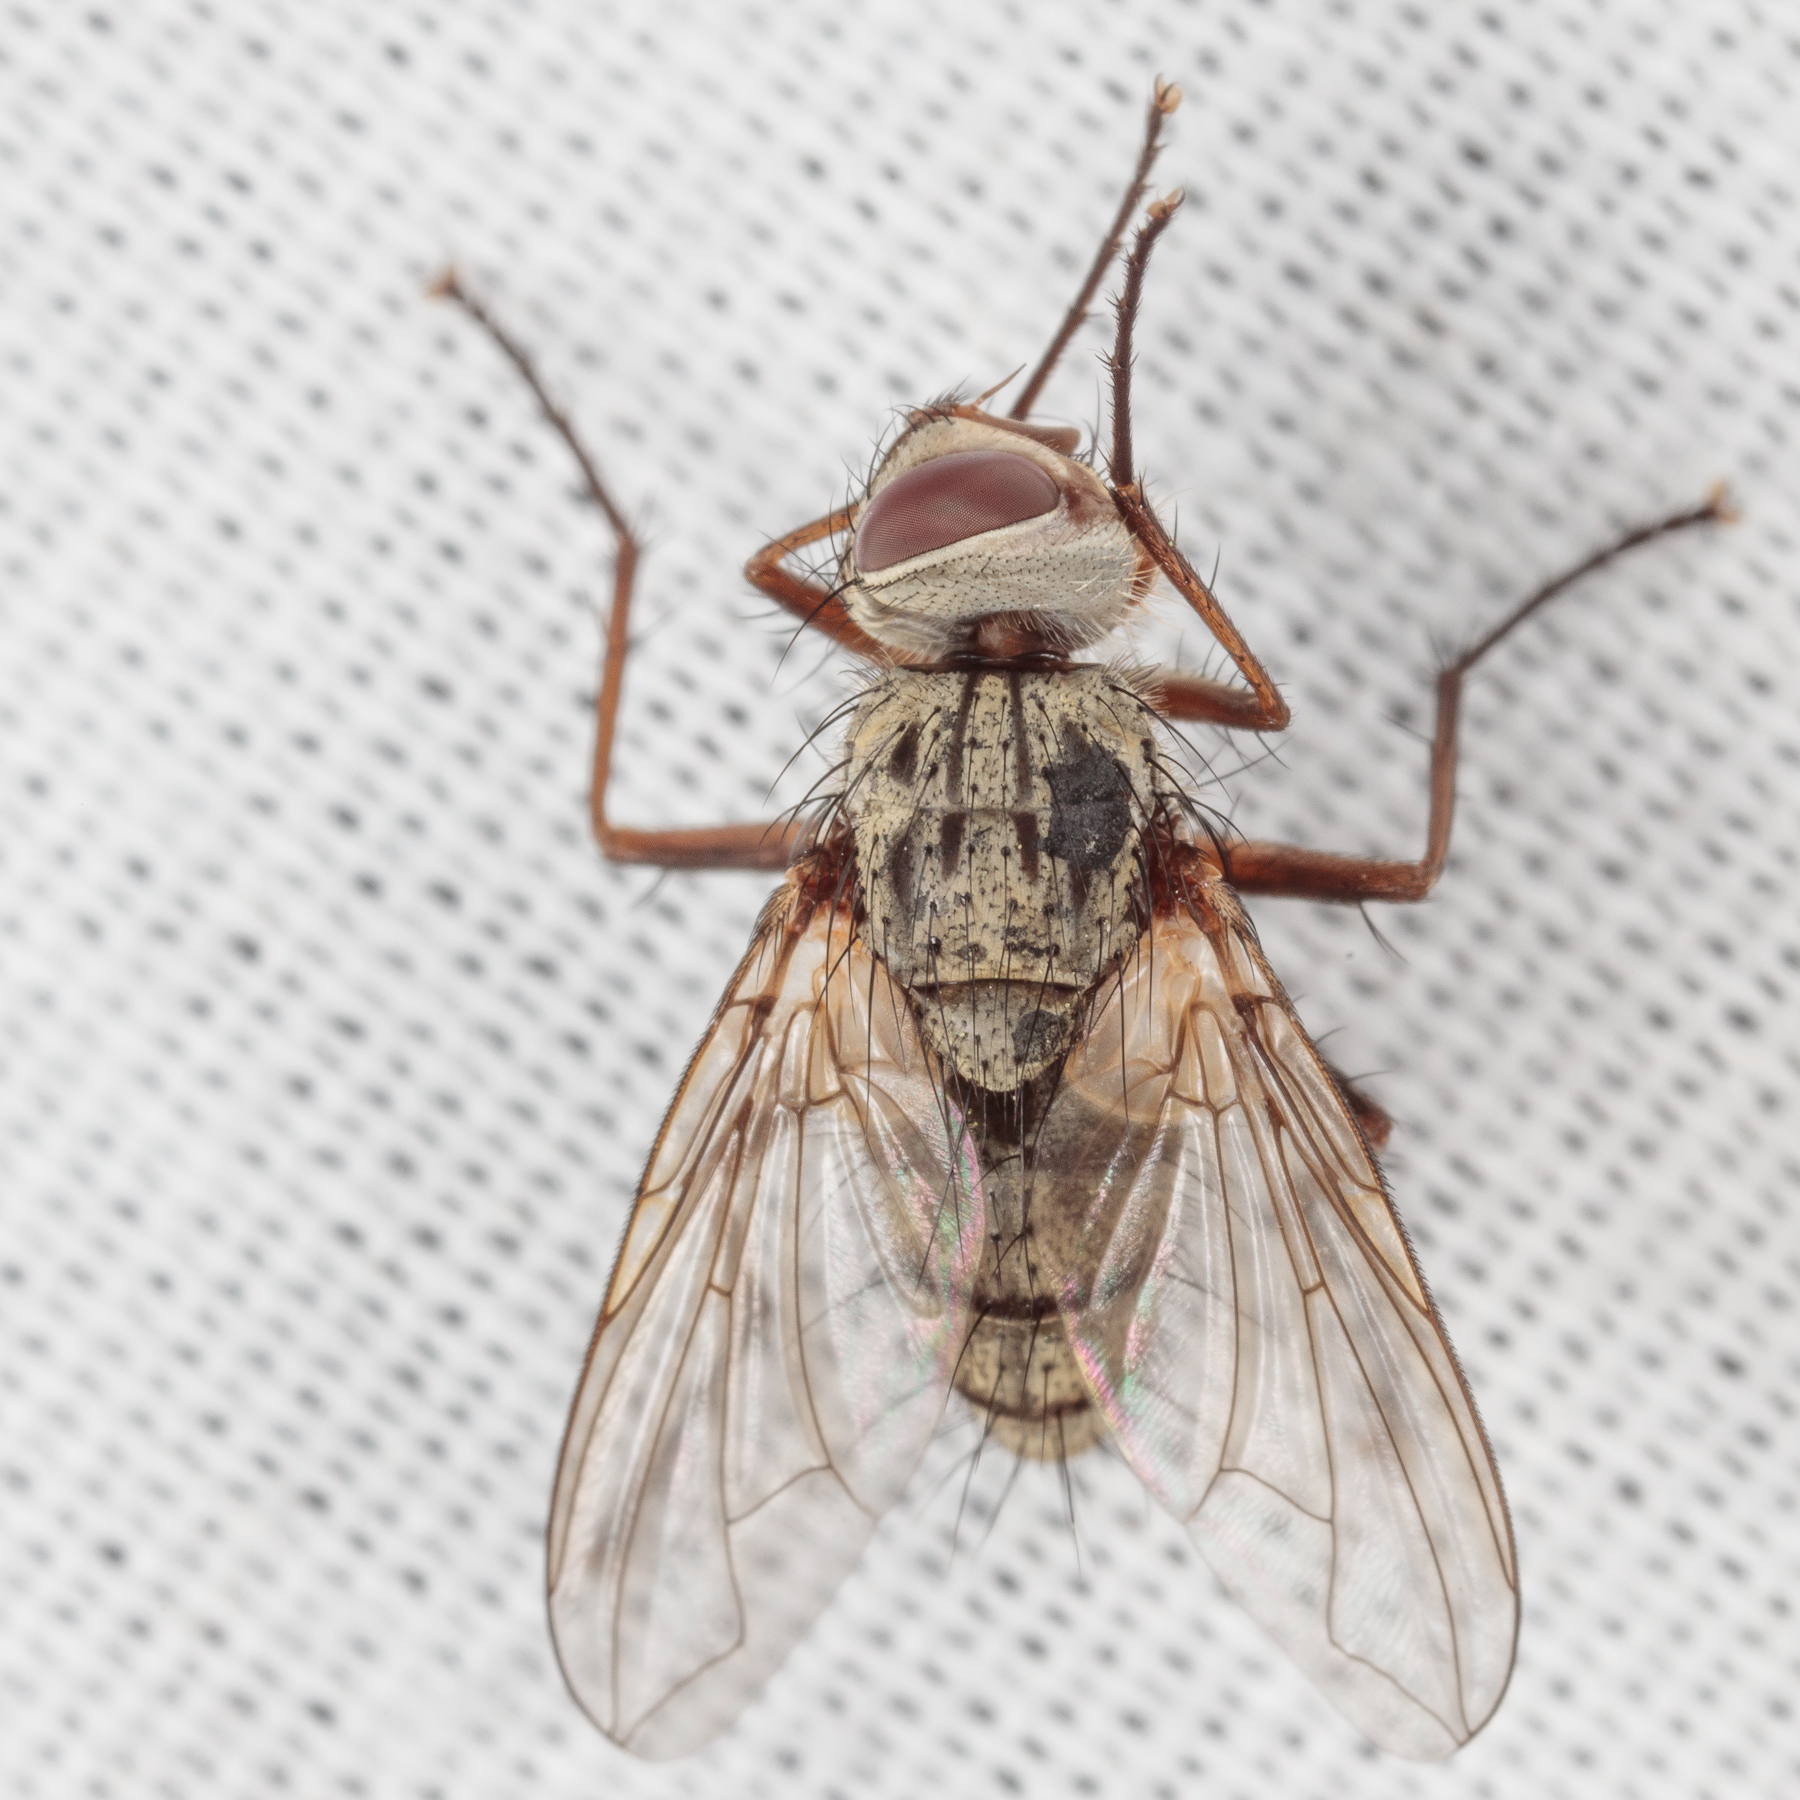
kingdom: Animalia
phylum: Arthropoda
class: Insecta
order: Diptera
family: Tachinidae
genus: Cryptomeigenia
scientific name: Cryptomeigenia
